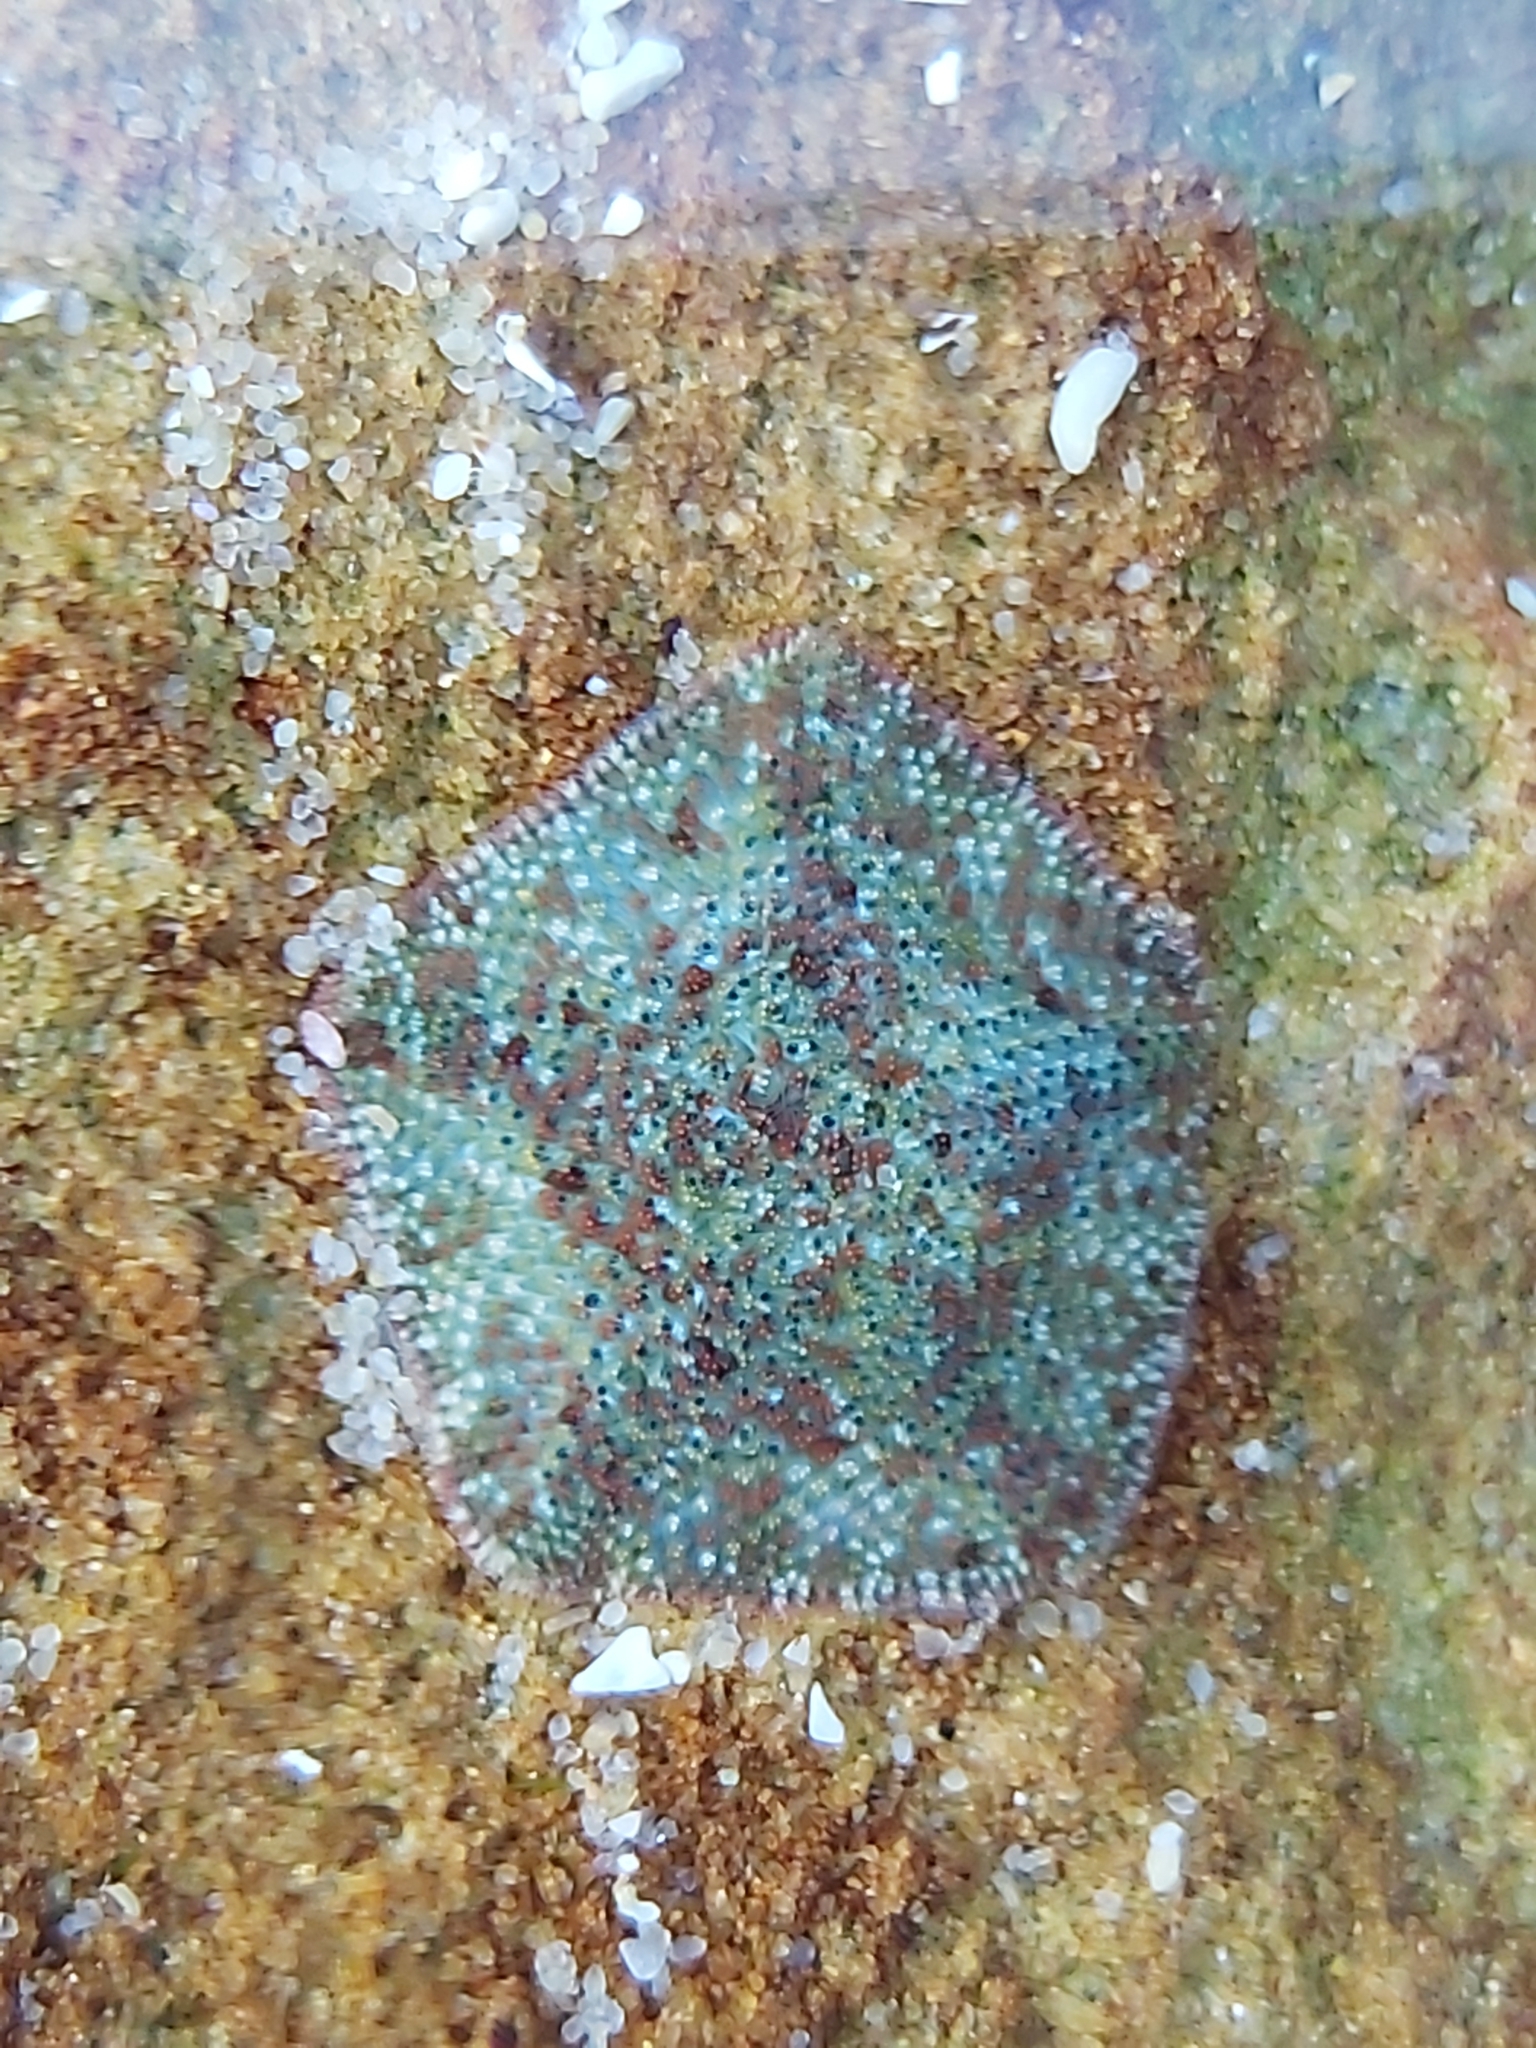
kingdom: Animalia
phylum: Echinodermata
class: Asteroidea
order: Valvatida
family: Asterinidae
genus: Parvulastra
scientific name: Parvulastra exigua
